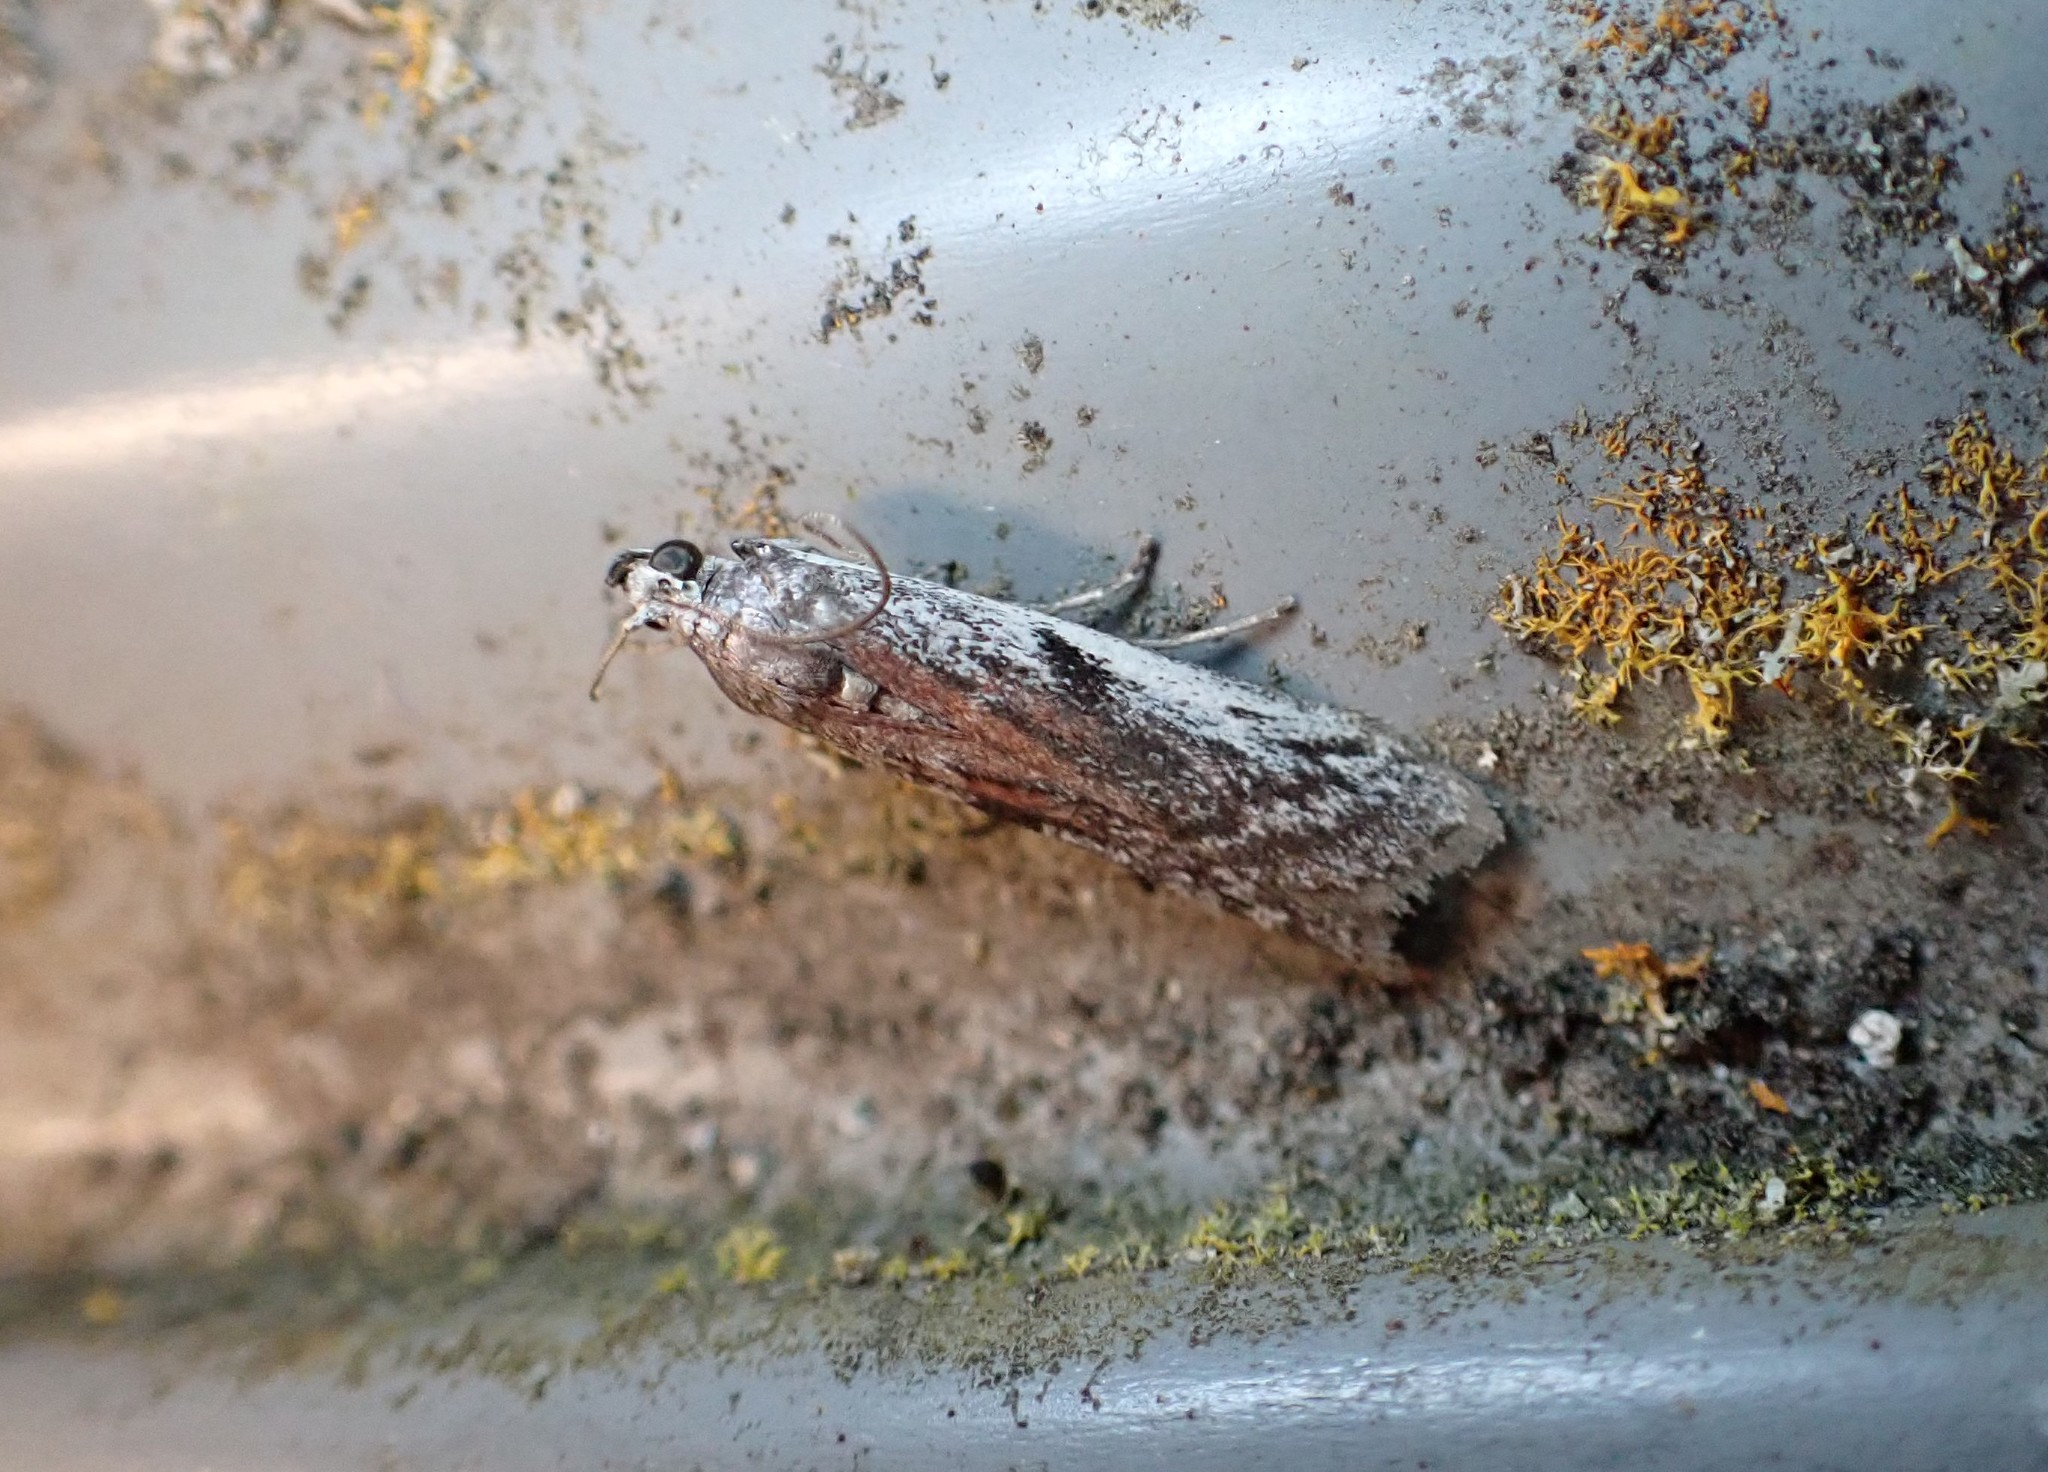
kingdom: Animalia
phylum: Arthropoda
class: Insecta
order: Lepidoptera
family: Pyralidae
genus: Patagoniodes
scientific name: Patagoniodes farinaria
